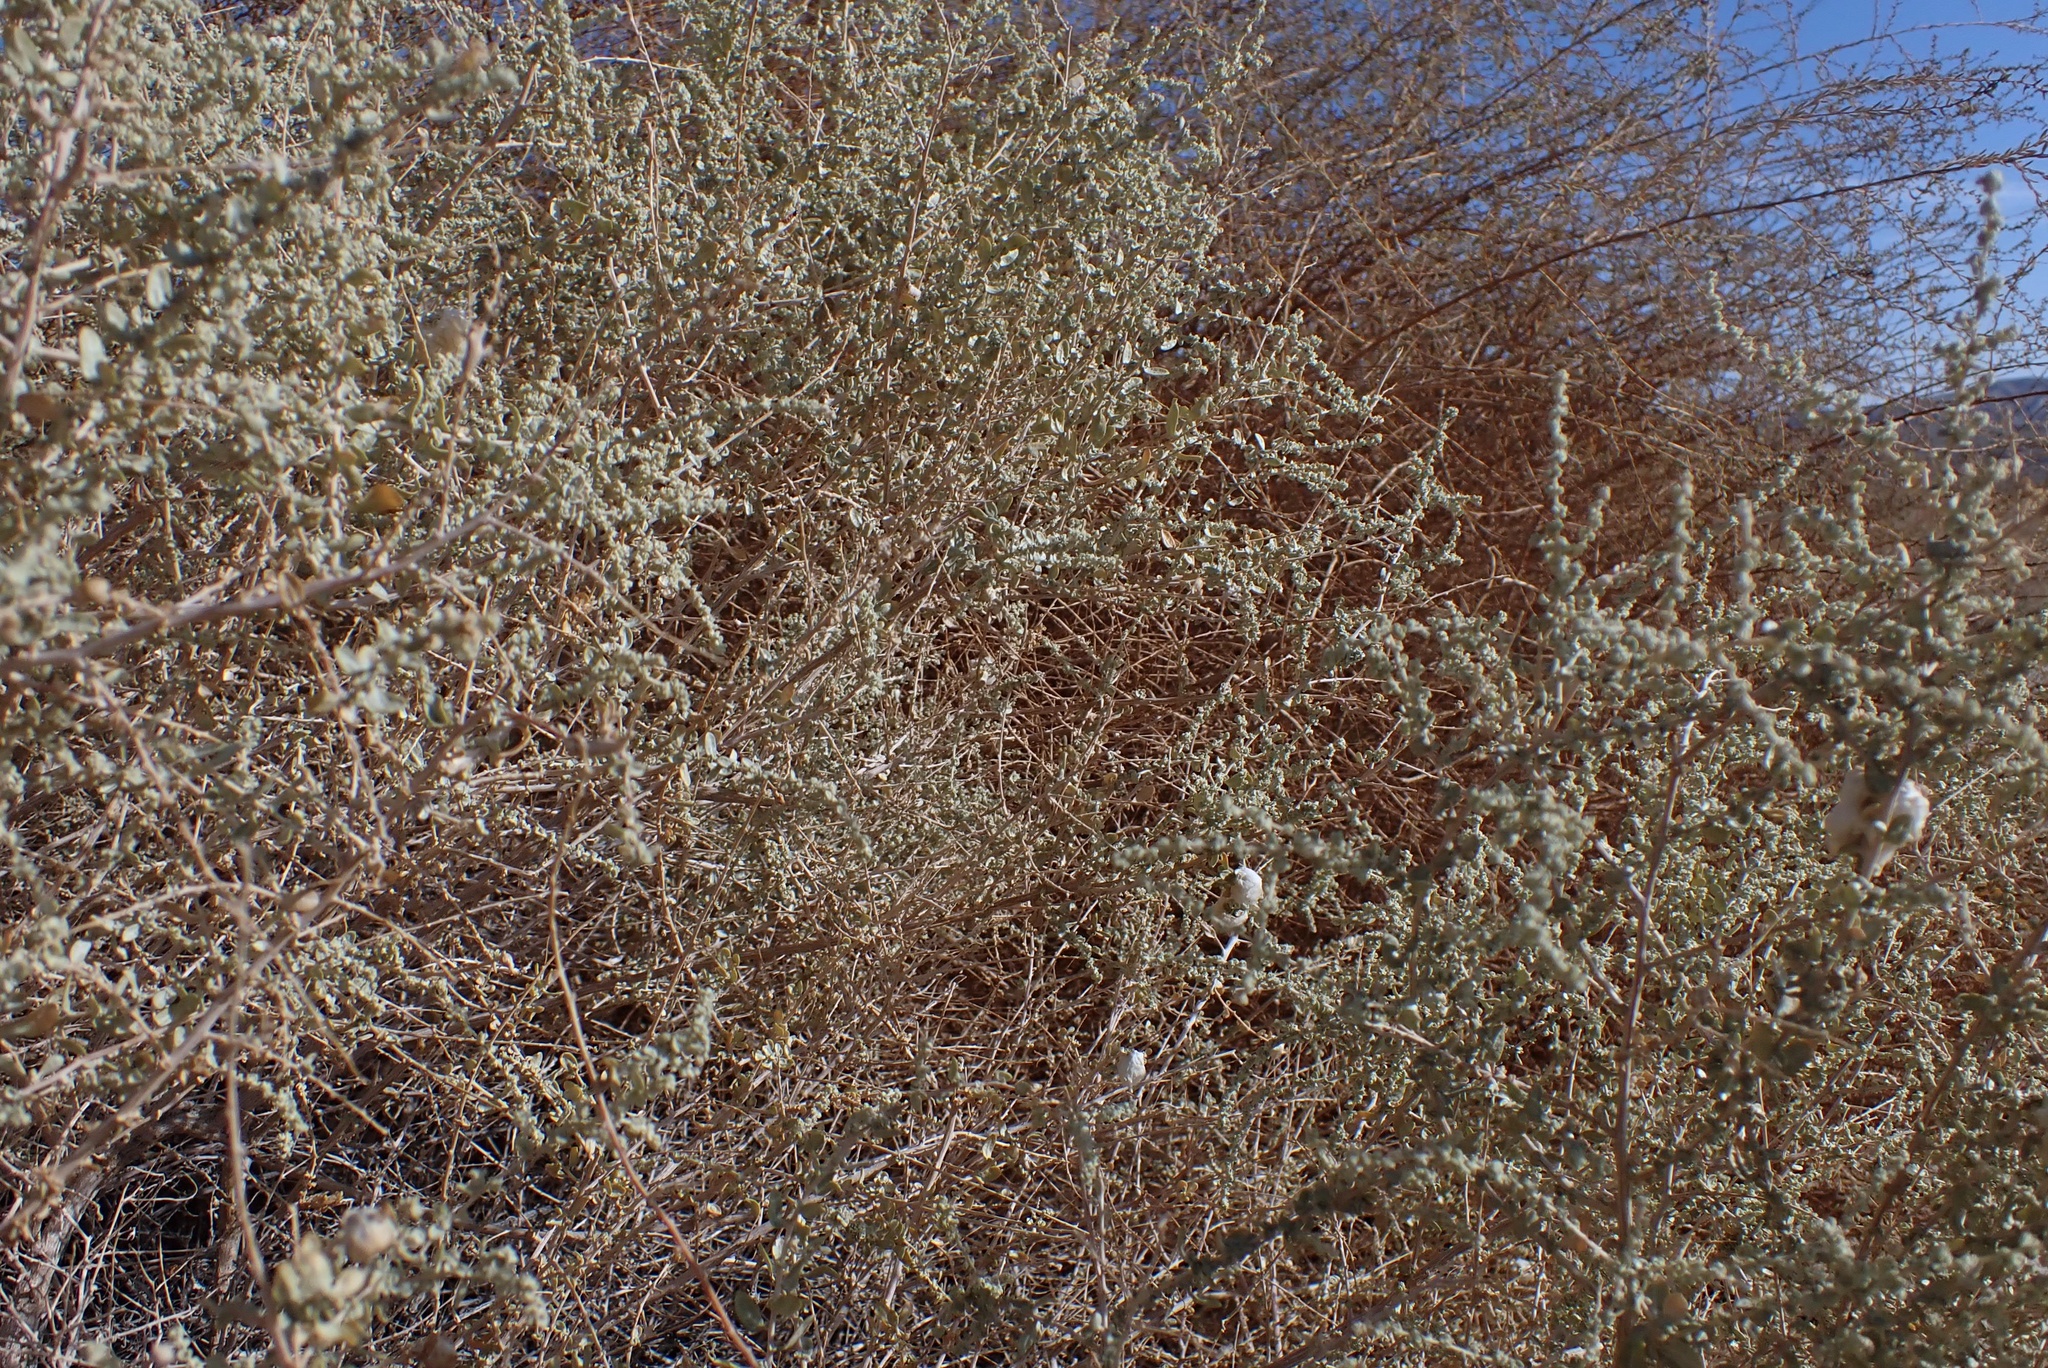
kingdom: Plantae
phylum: Tracheophyta
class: Magnoliopsida
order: Caryophyllales
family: Amaranthaceae
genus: Atriplex
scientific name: Atriplex polycarpa
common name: Desert saltbush
